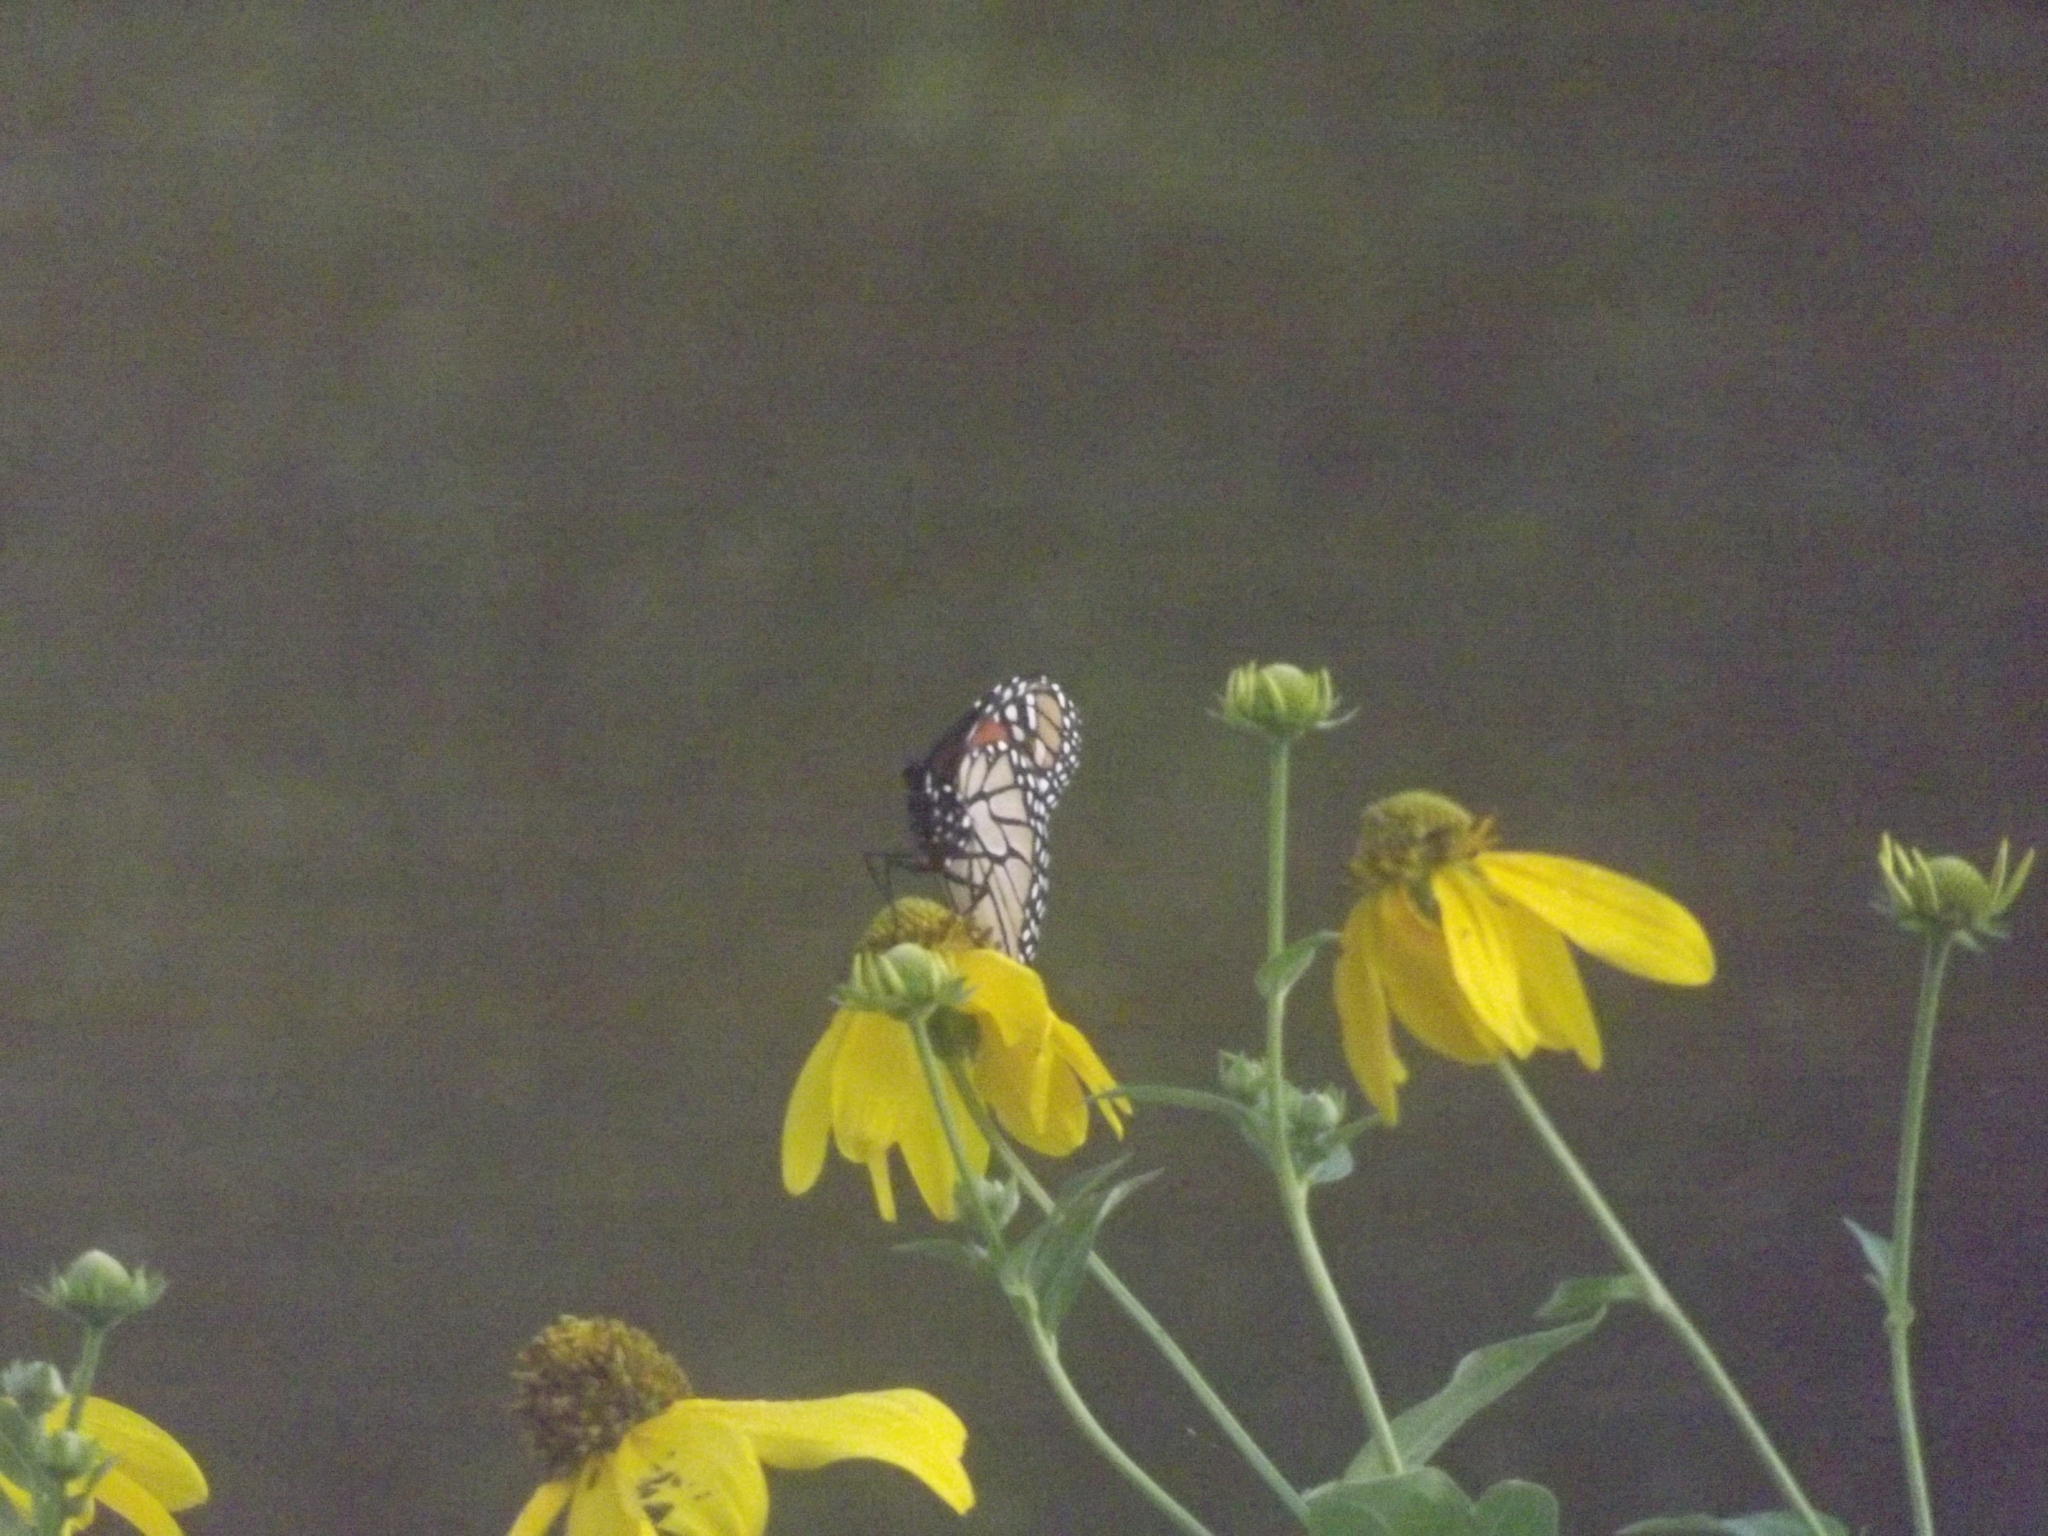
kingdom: Animalia
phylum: Arthropoda
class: Insecta
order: Lepidoptera
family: Nymphalidae
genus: Danaus
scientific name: Danaus plexippus
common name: Monarch
